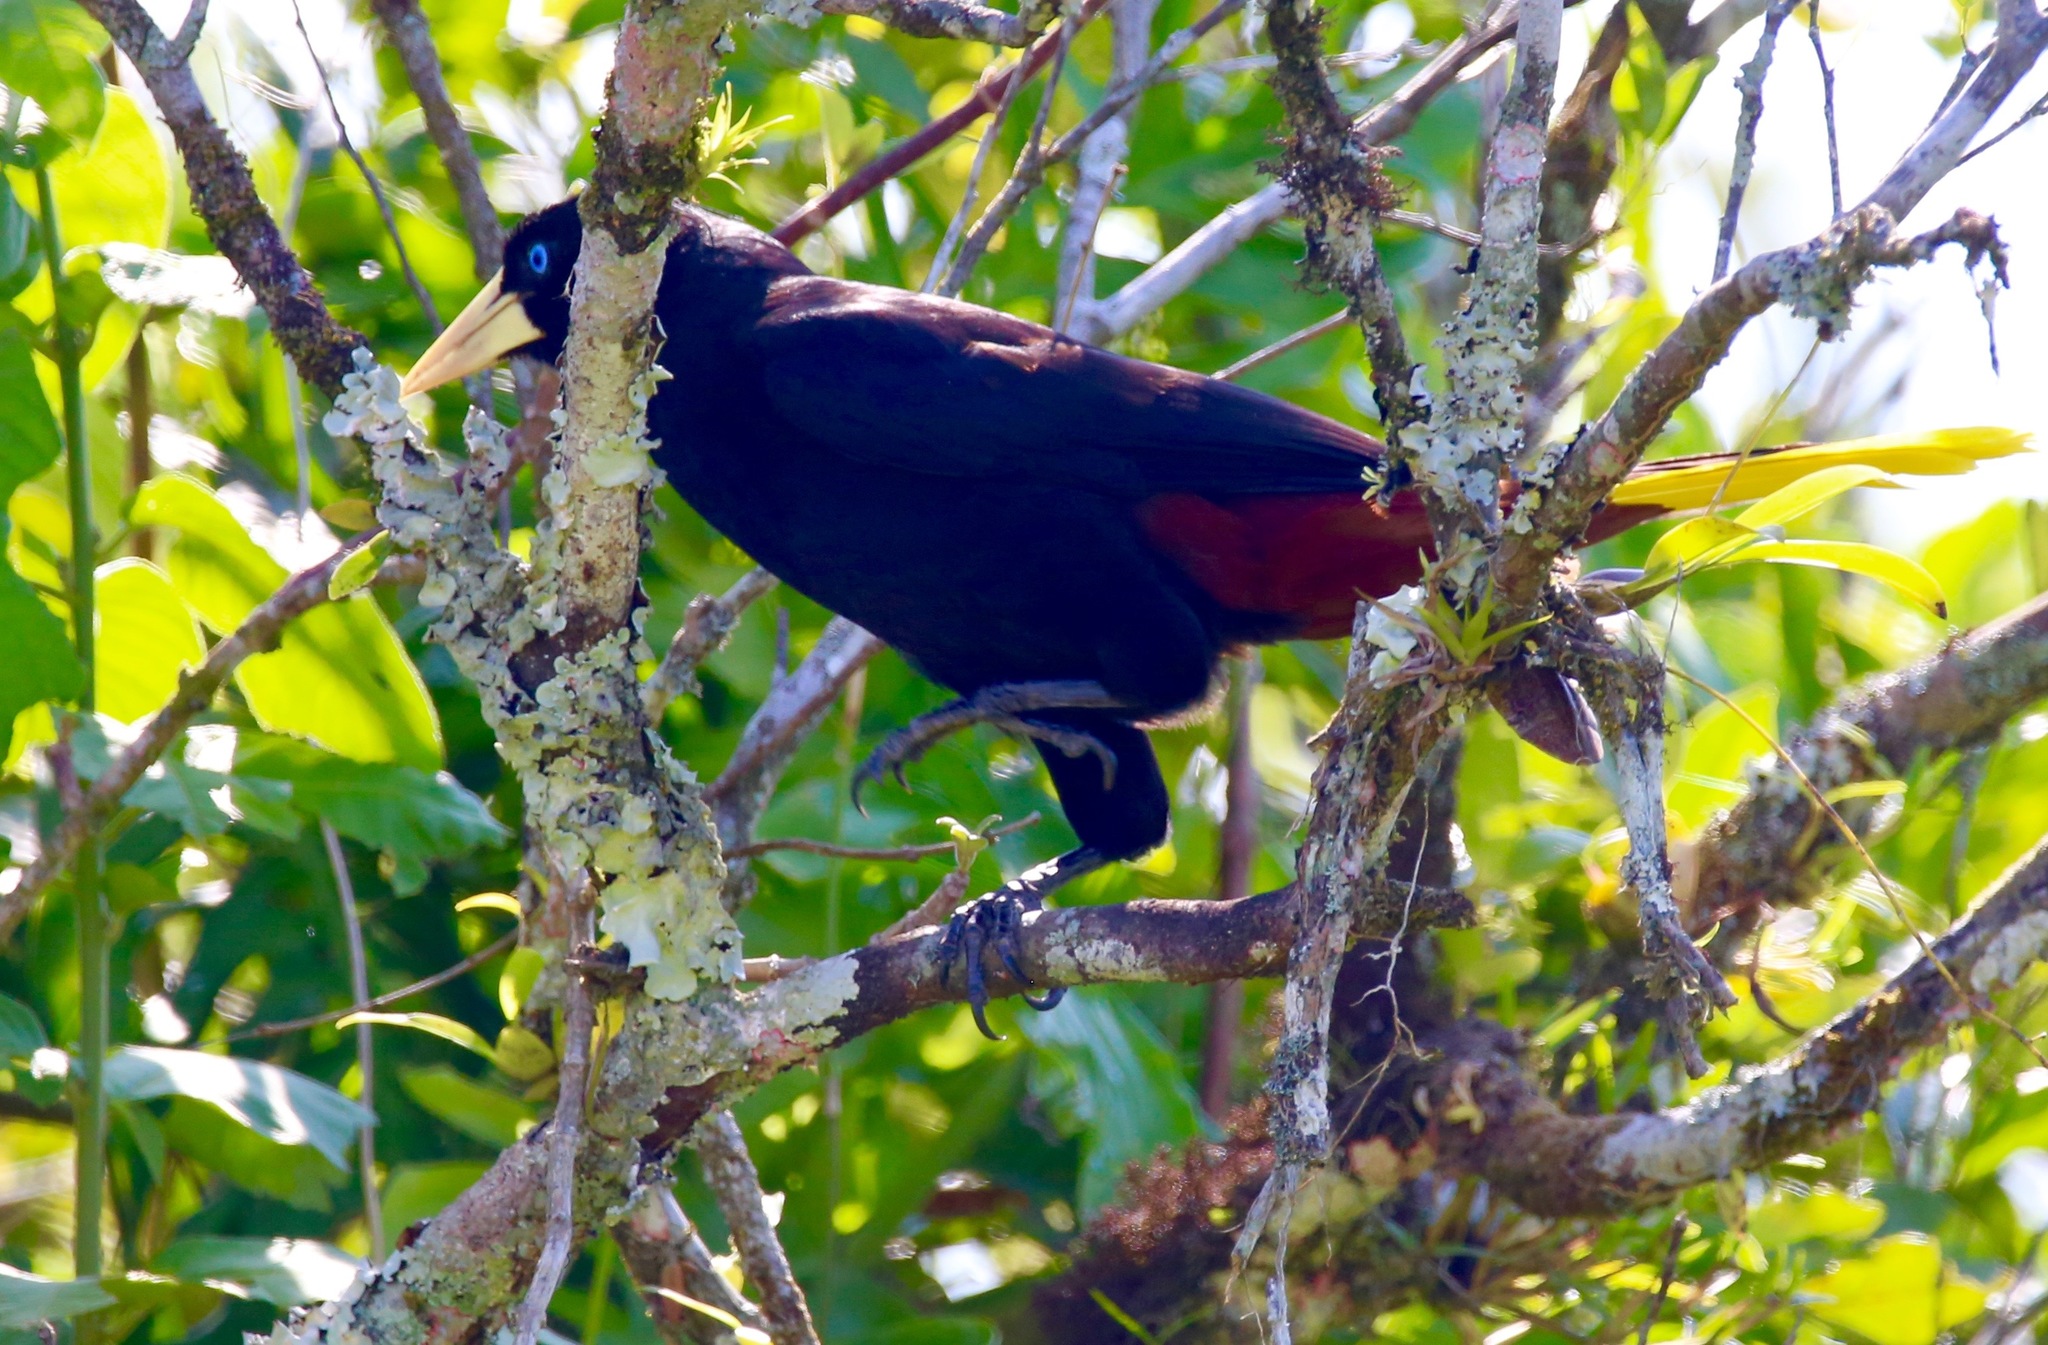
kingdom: Animalia
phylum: Chordata
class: Aves
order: Passeriformes
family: Icteridae
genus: Psarocolius
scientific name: Psarocolius decumanus
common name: Crested oropendola
